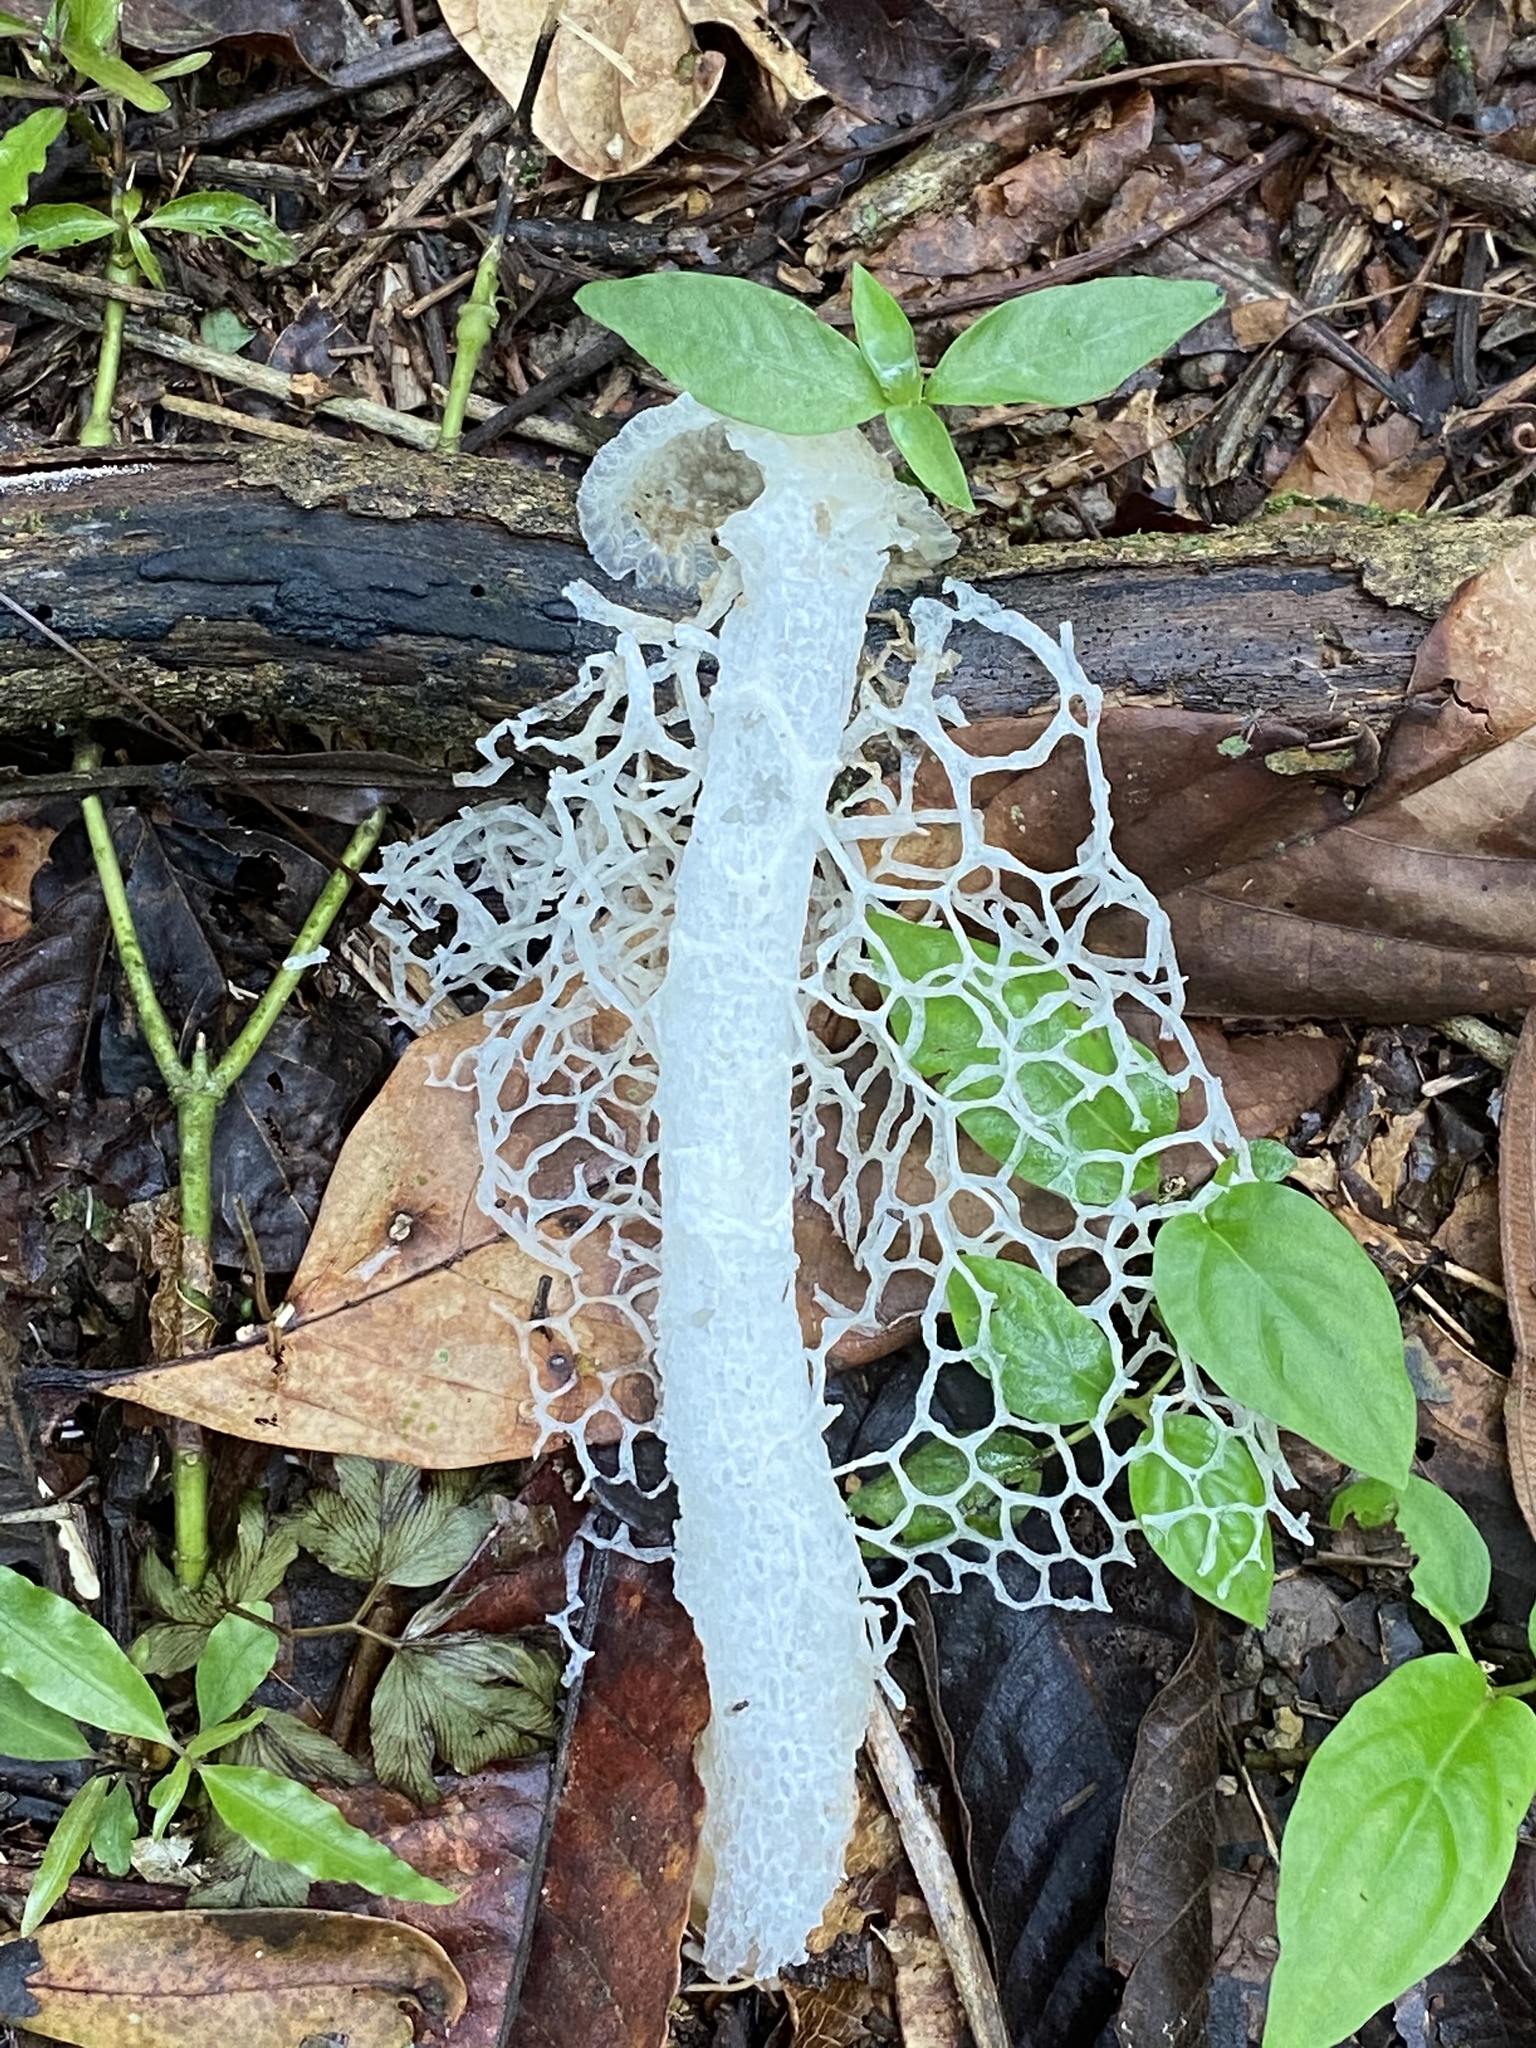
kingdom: Fungi
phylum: Basidiomycota
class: Agaricomycetes
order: Phallales
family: Phallaceae
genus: Phallus
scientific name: Phallus indusiatus
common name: Bridal veil stinkhorn
